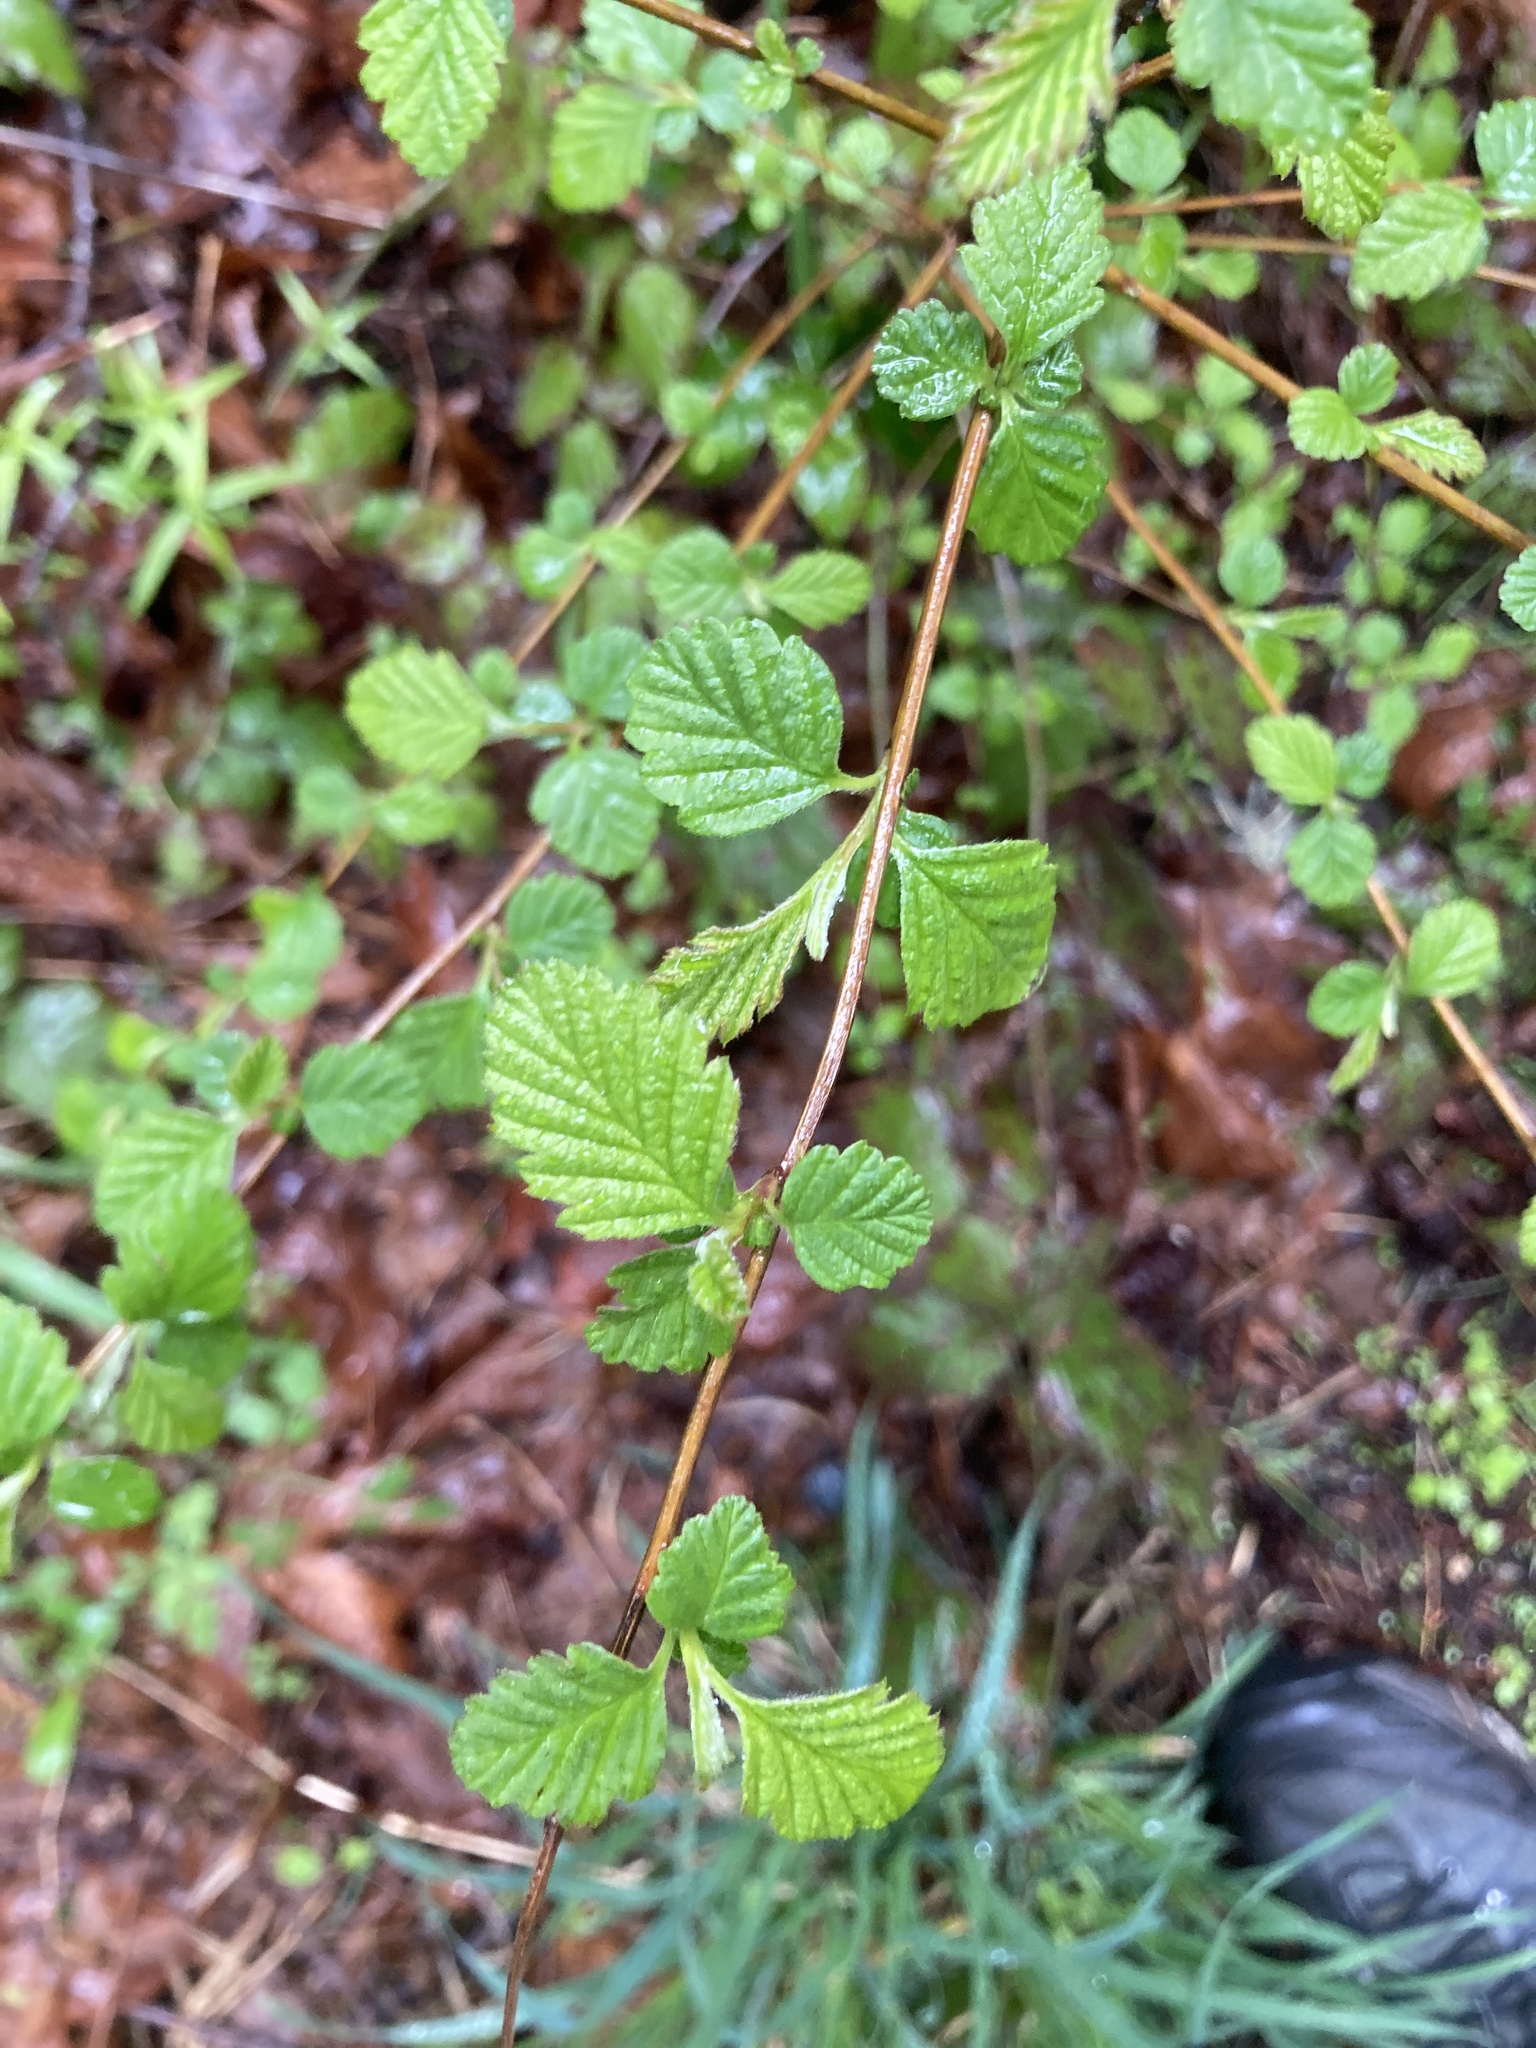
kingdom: Plantae
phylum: Tracheophyta
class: Magnoliopsida
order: Rosales
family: Rosaceae
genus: Holodiscus
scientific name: Holodiscus discolor
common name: Oceanspray
